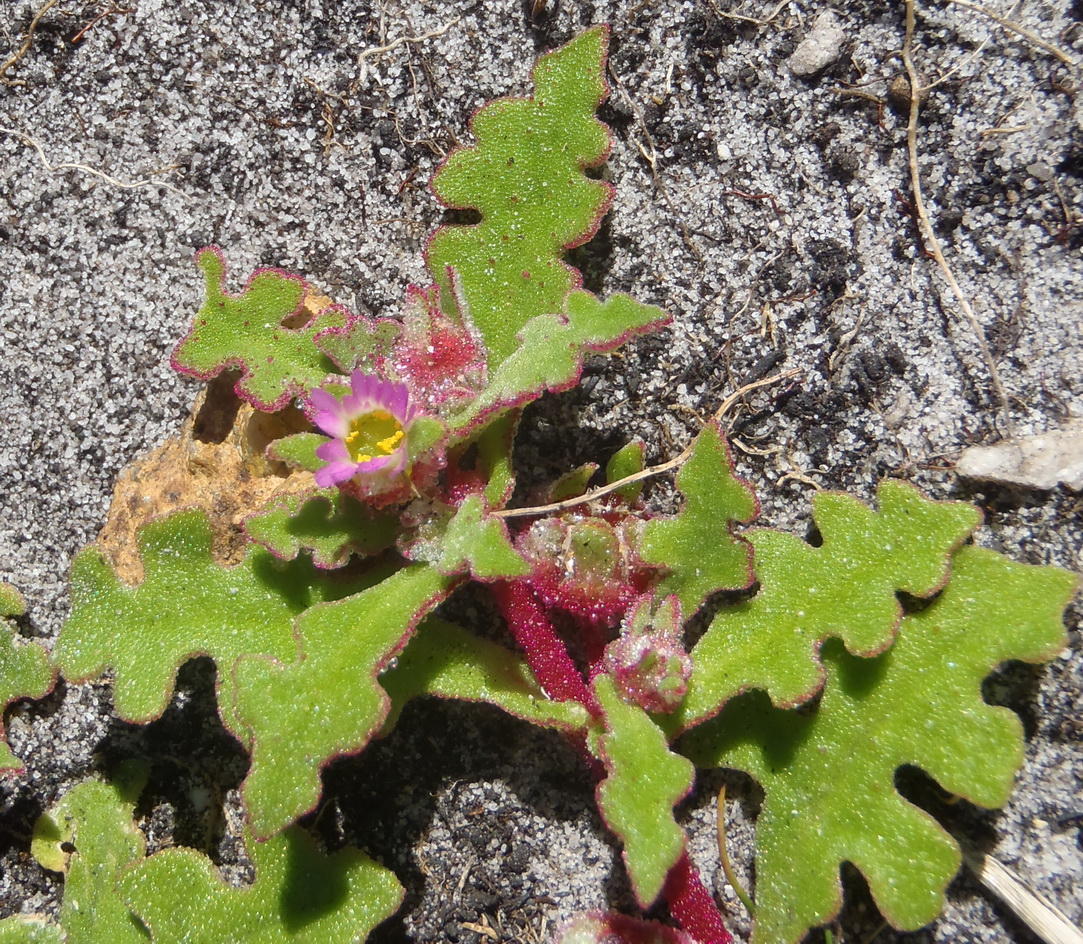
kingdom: Plantae
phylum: Tracheophyta
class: Magnoliopsida
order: Caryophyllales
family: Aizoaceae
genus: Cleretum
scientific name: Cleretum herrei
